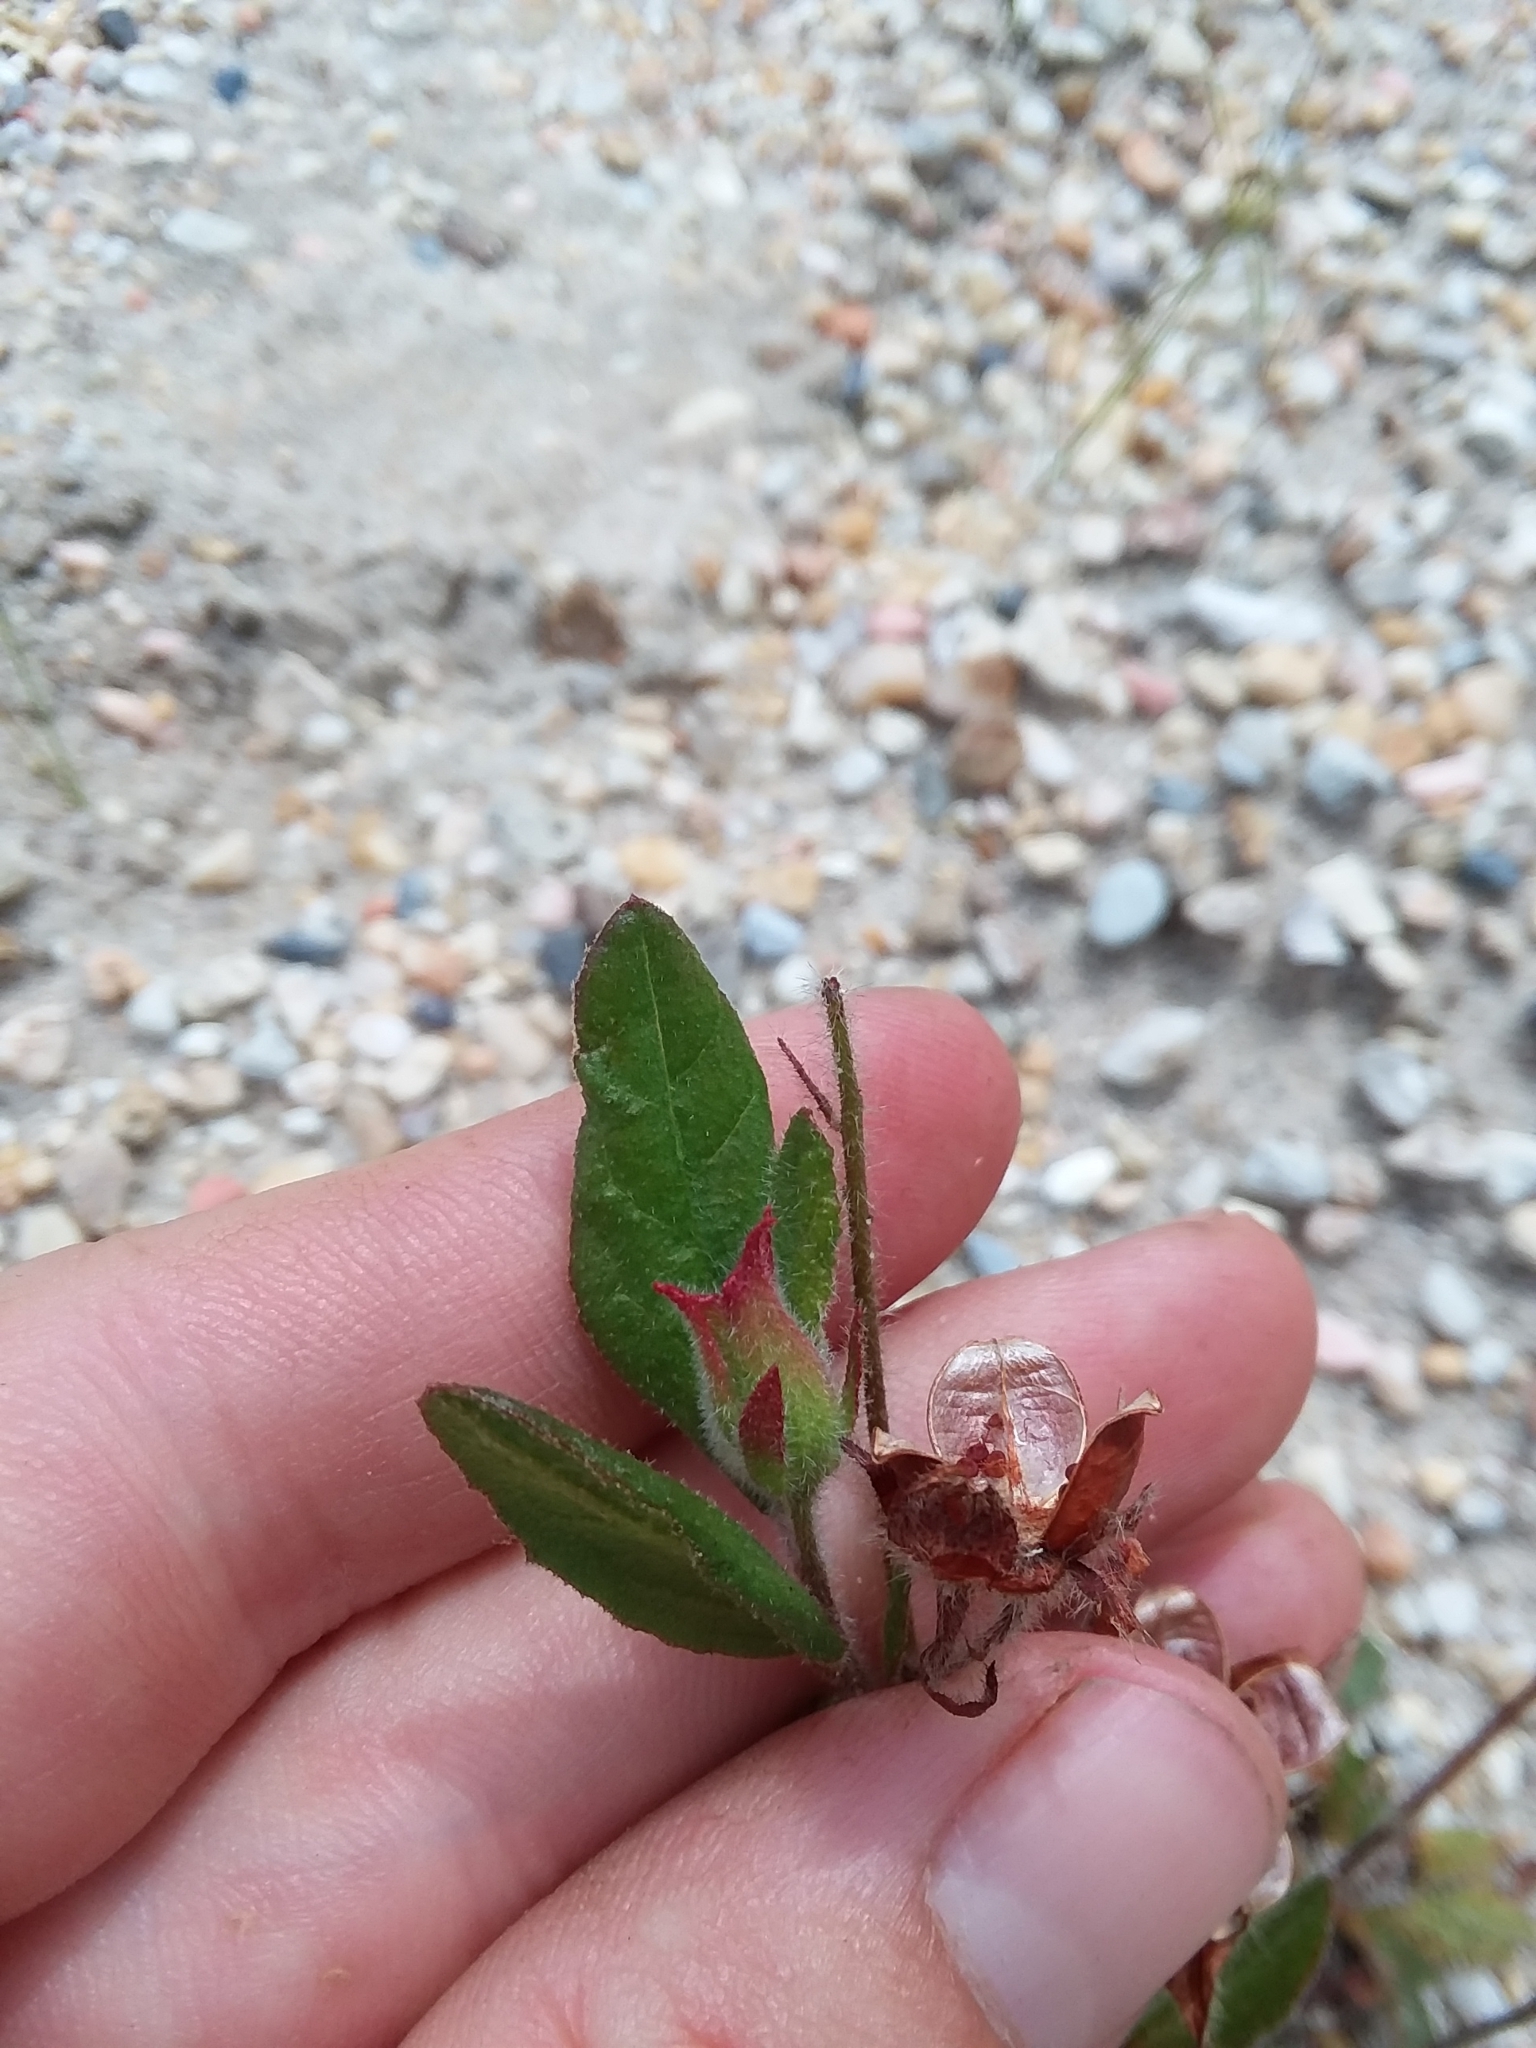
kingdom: Plantae
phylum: Tracheophyta
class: Magnoliopsida
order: Malvales
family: Cistaceae
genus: Crocanthemum
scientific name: Crocanthemum carolinianum
